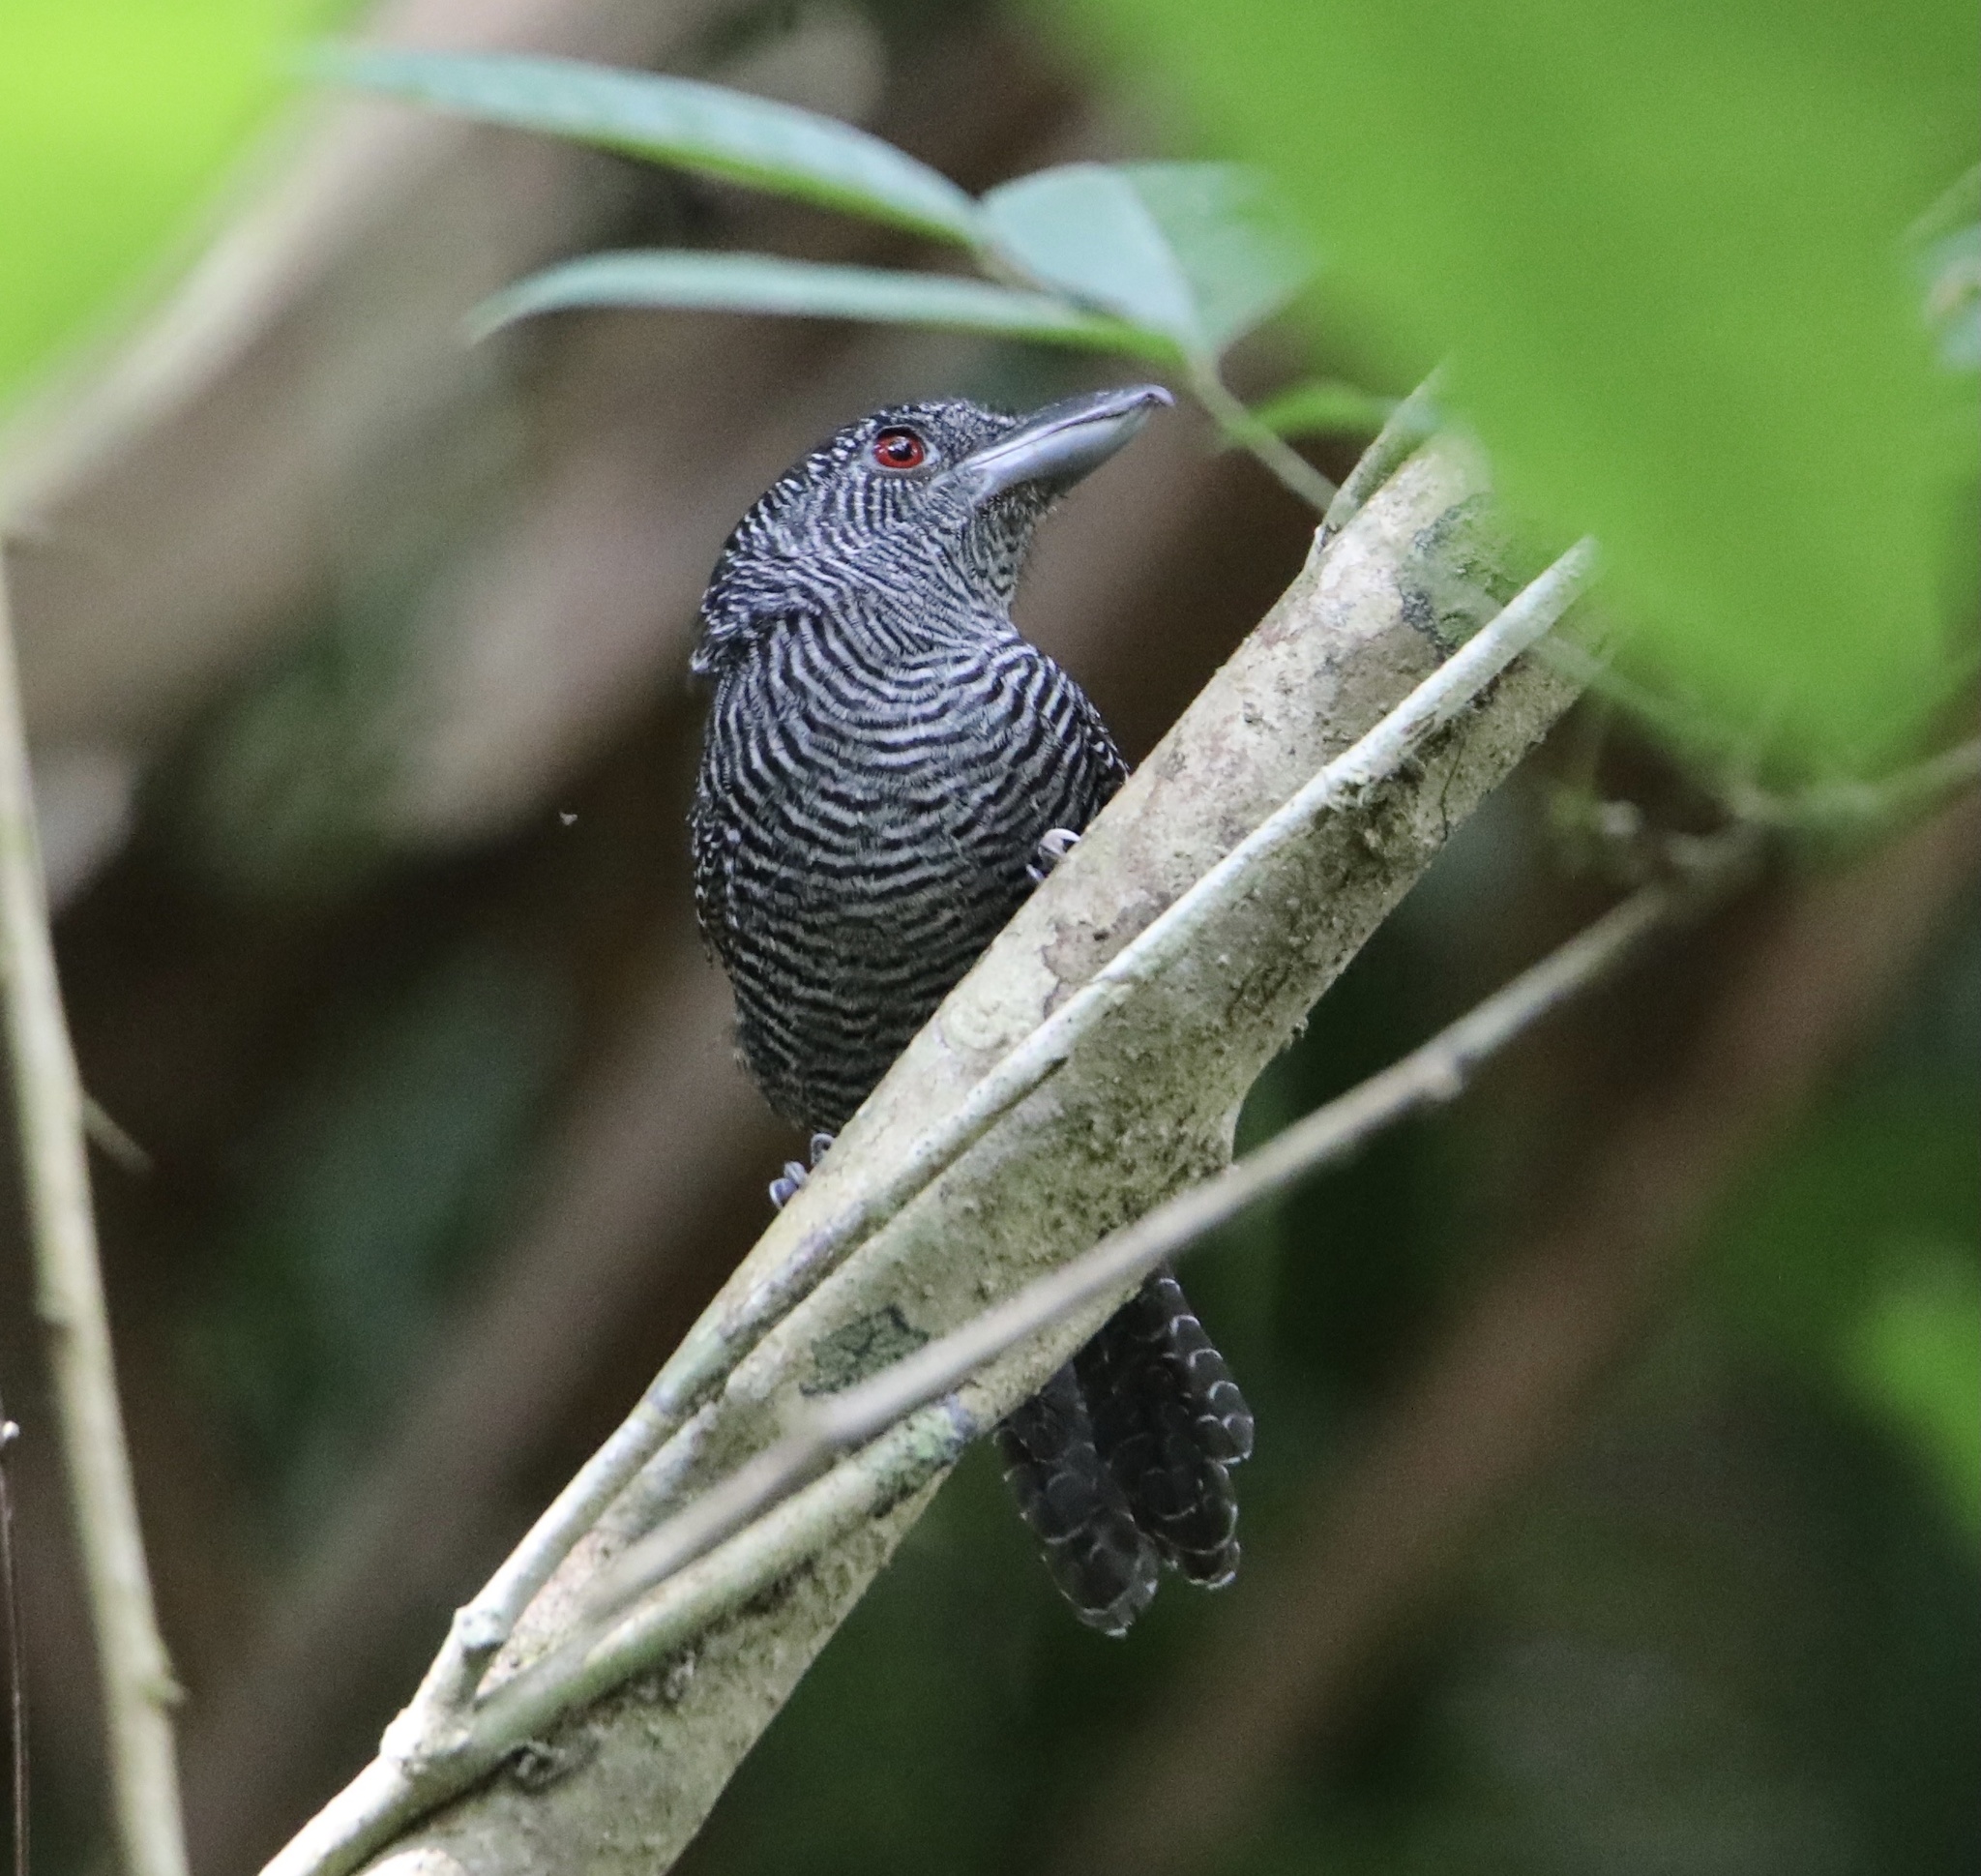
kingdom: Animalia
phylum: Chordata
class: Aves
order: Passeriformes
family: Thamnophilidae
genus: Cymbilaimus
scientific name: Cymbilaimus lineatus
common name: Fasciated antshrike
